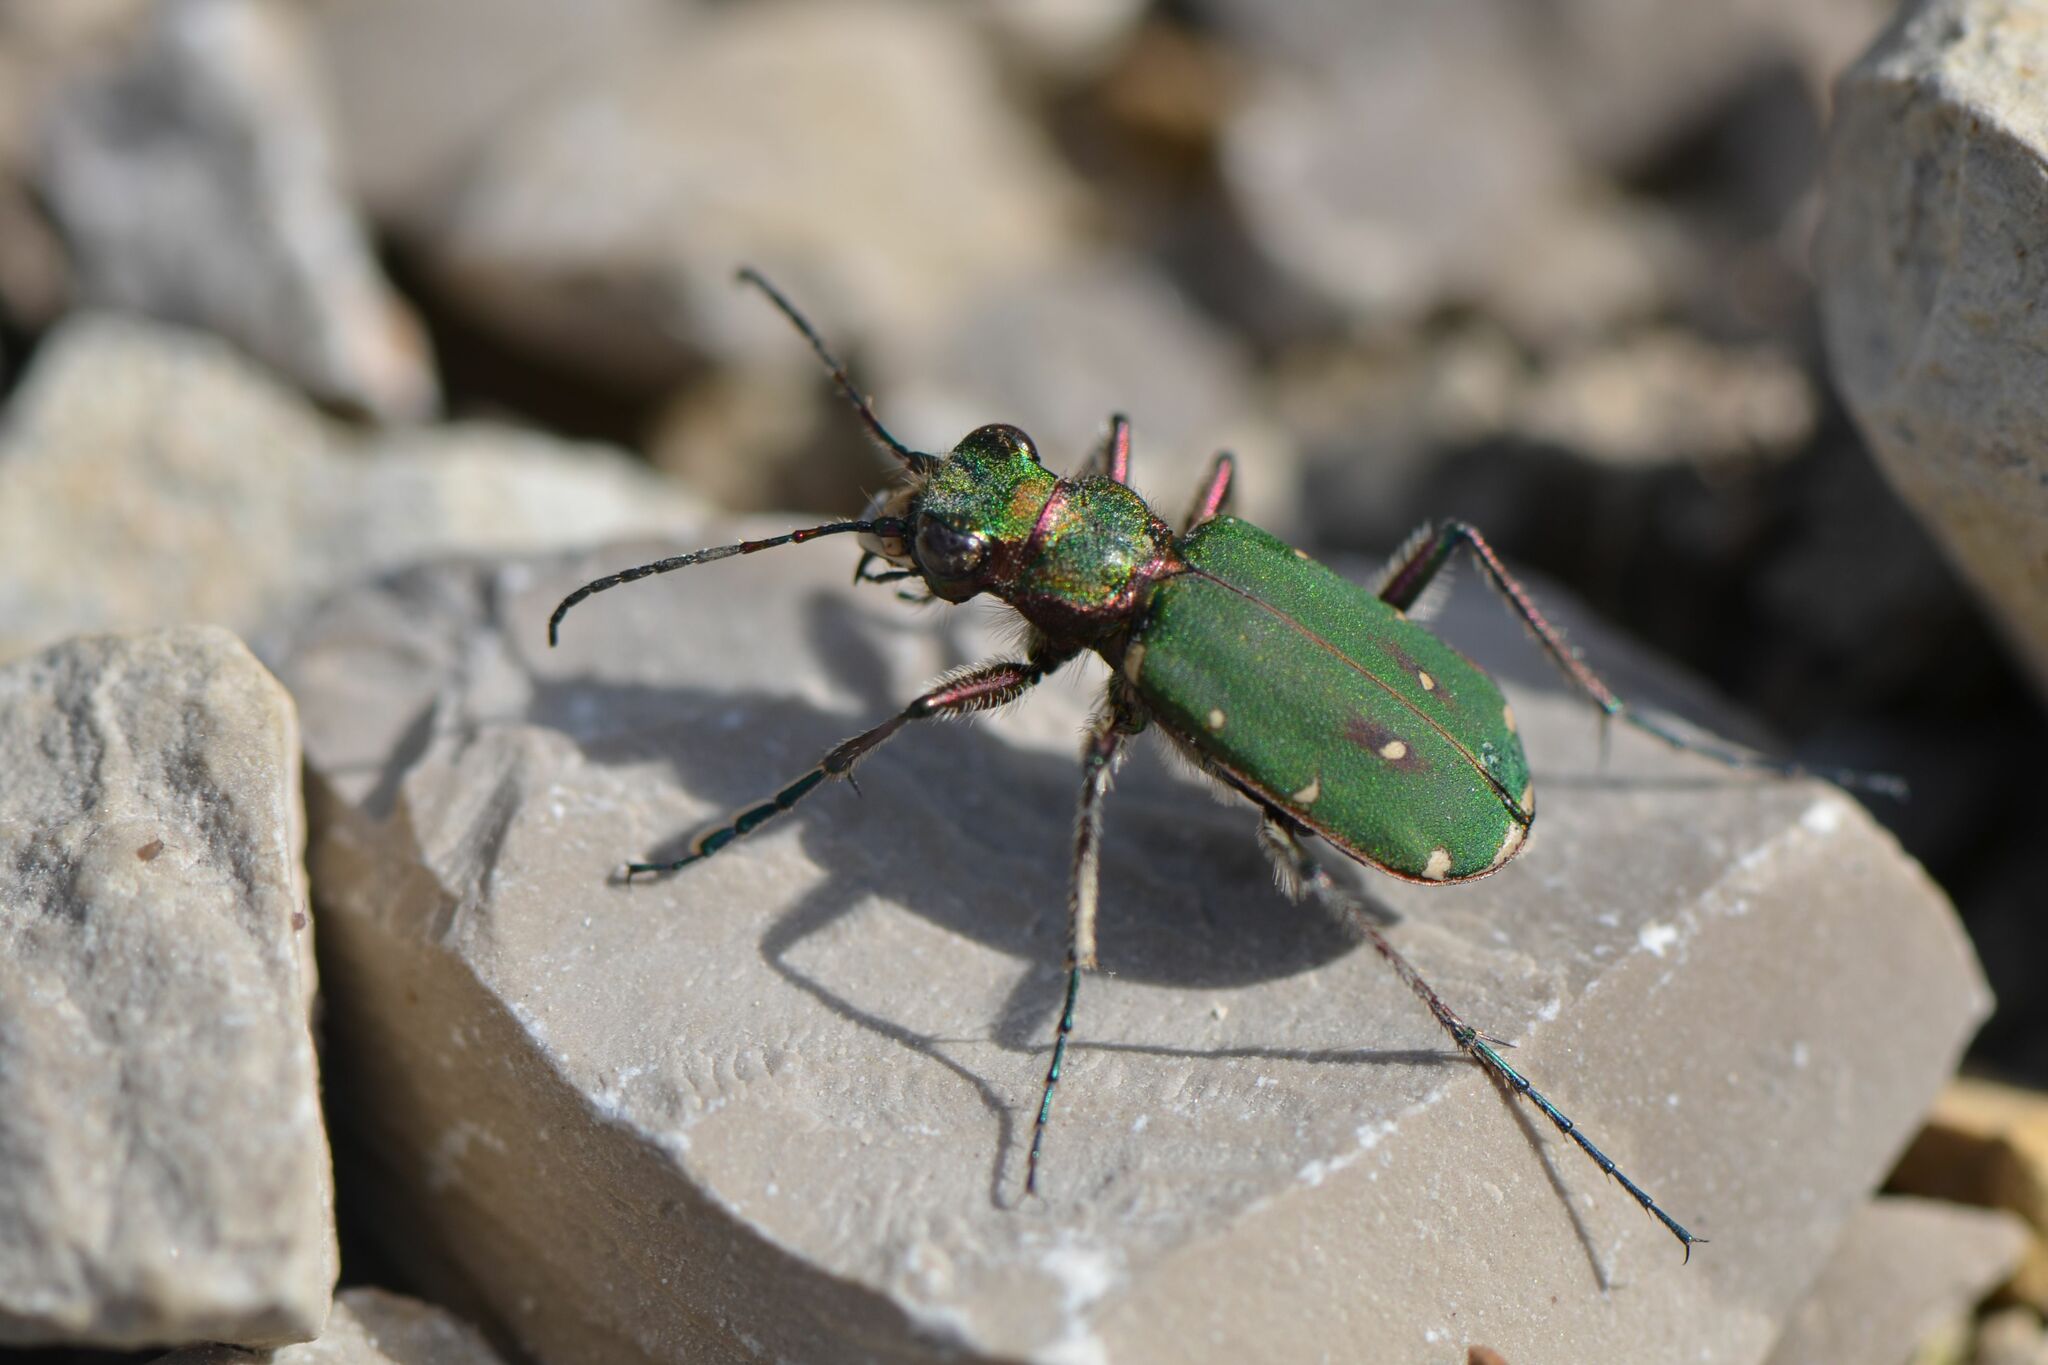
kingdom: Animalia
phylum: Arthropoda
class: Insecta
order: Coleoptera
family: Carabidae
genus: Cicindela
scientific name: Cicindela campestris
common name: Common tiger beetle
